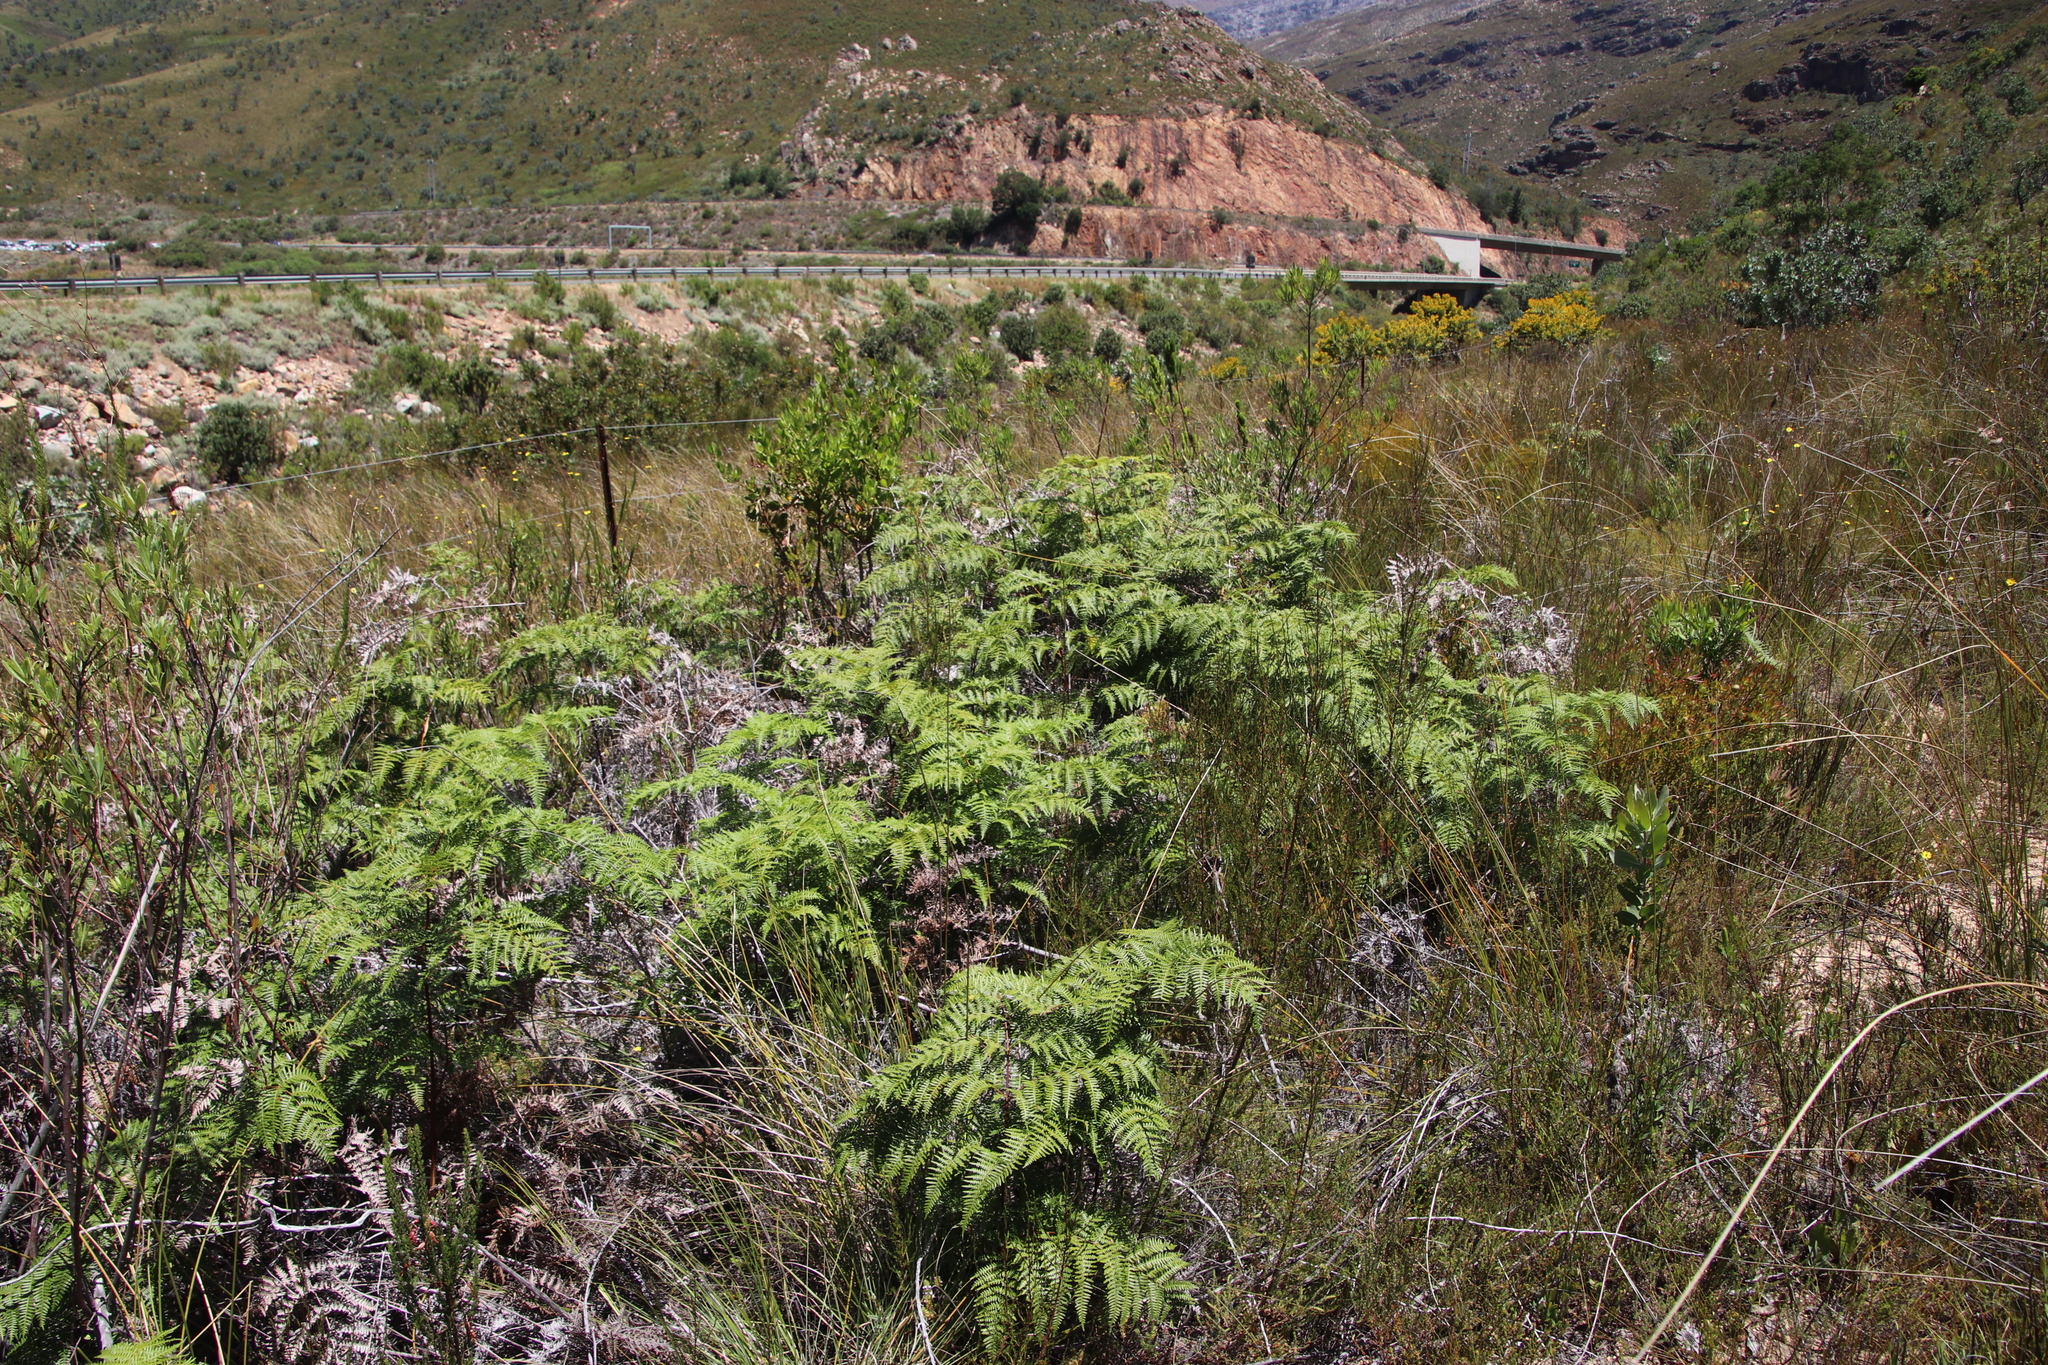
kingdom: Plantae
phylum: Tracheophyta
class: Polypodiopsida
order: Polypodiales
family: Dennstaedtiaceae
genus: Pteridium
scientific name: Pteridium aquilinum
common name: Bracken
